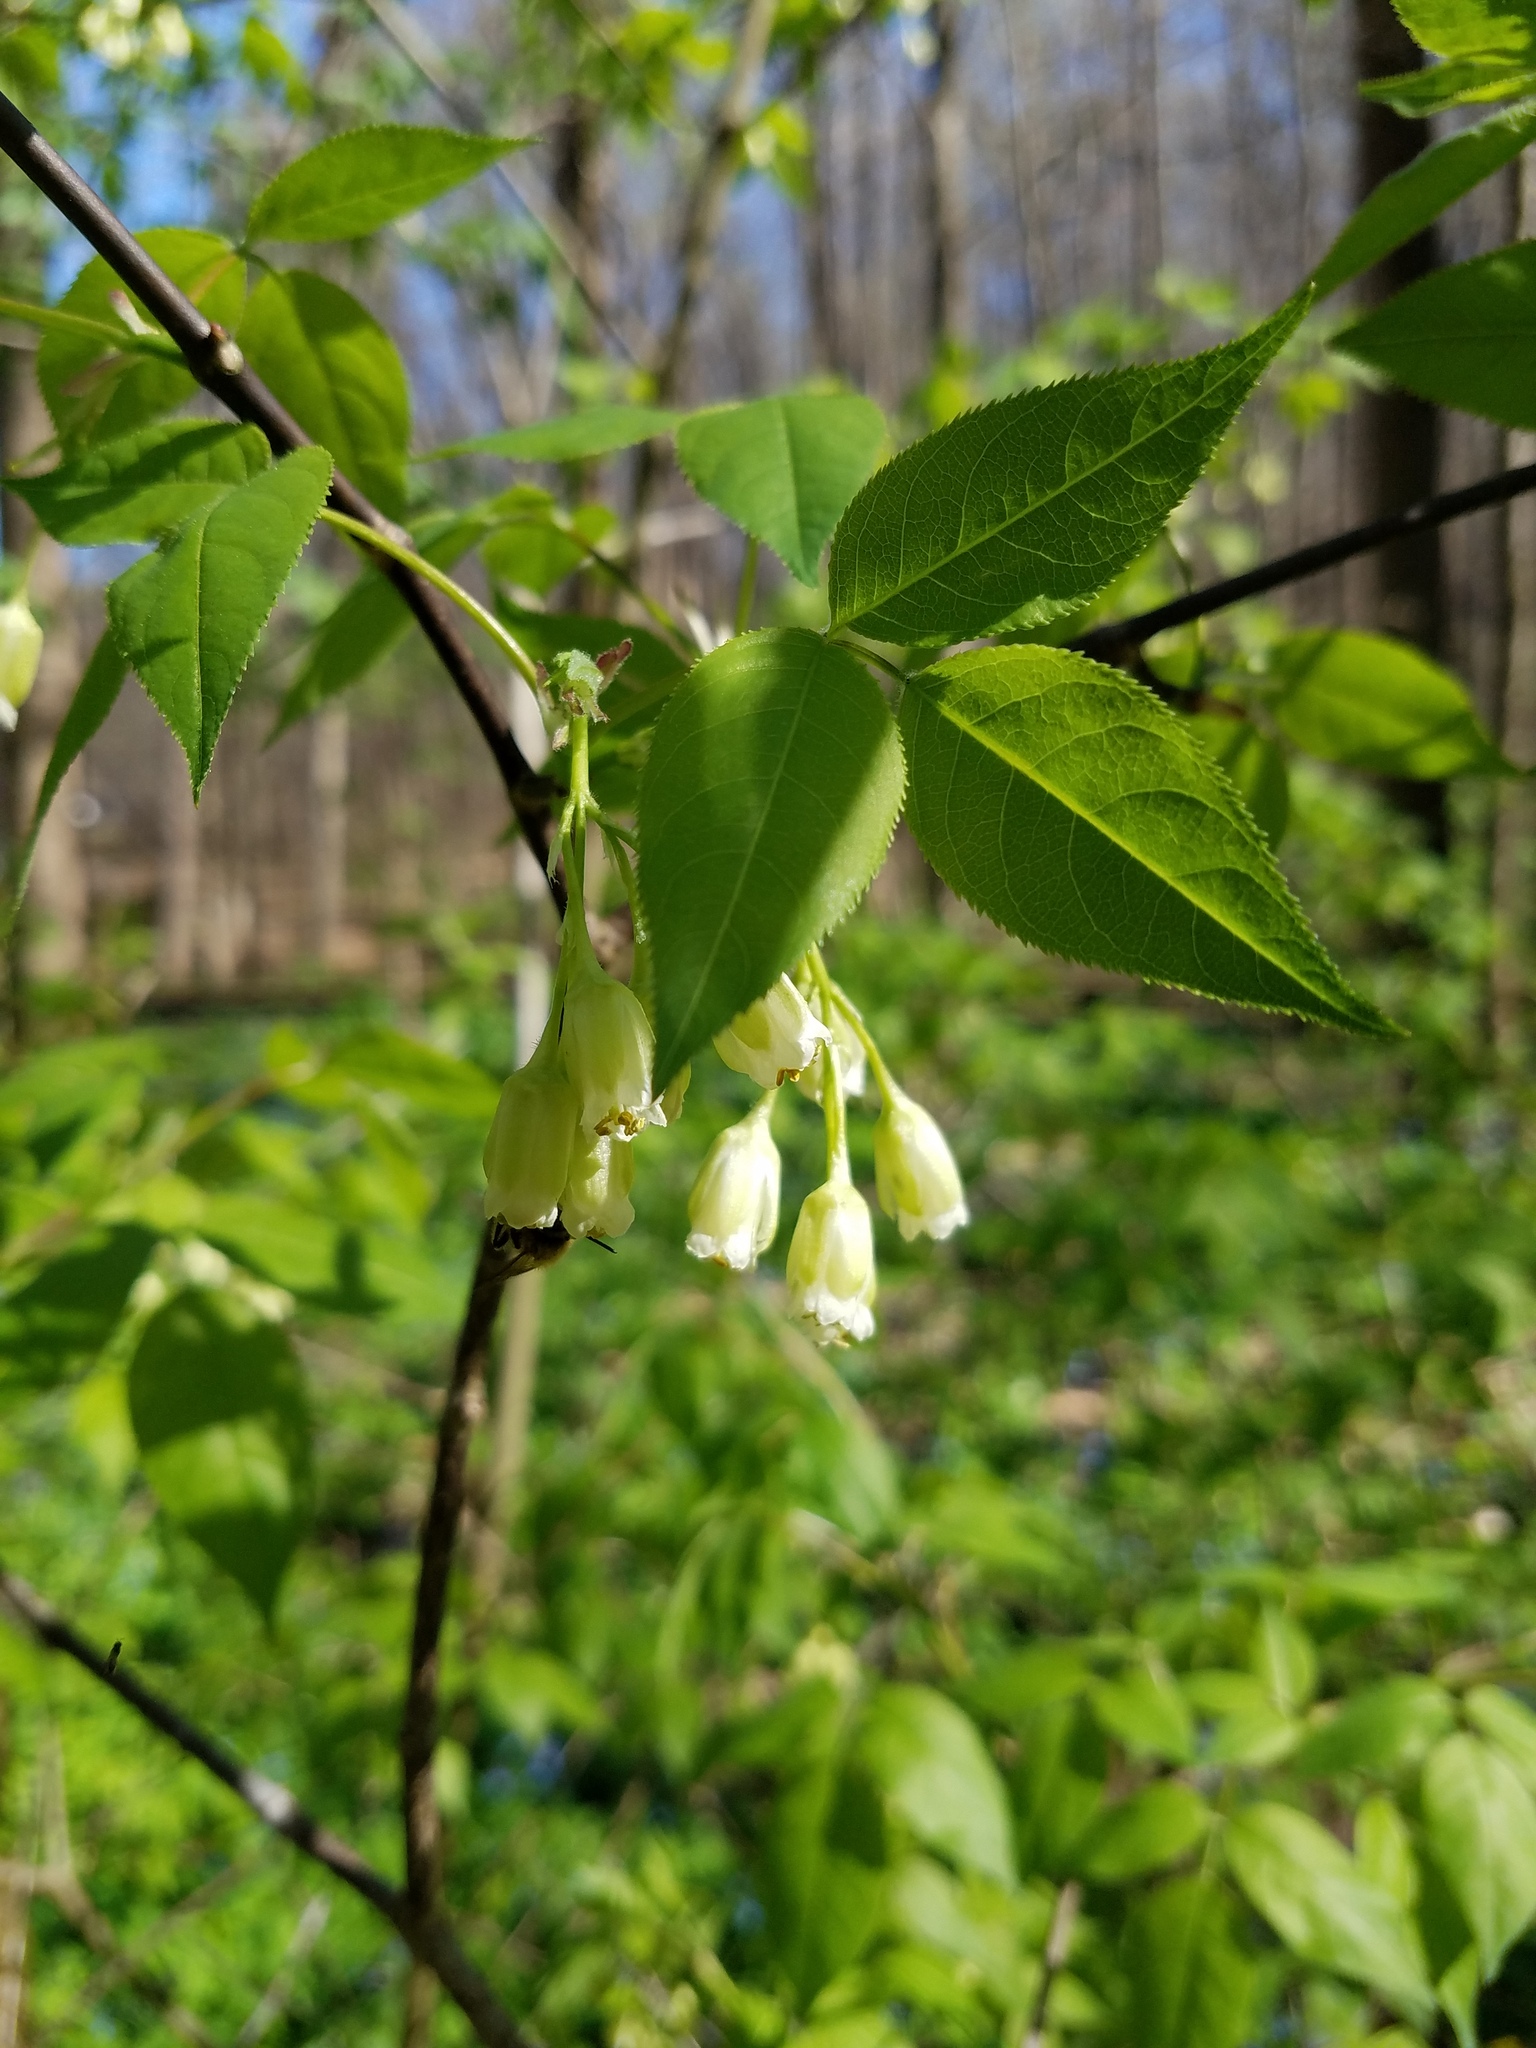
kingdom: Plantae
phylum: Tracheophyta
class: Magnoliopsida
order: Crossosomatales
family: Staphyleaceae
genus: Staphylea
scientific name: Staphylea trifolia
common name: American bladdernut
